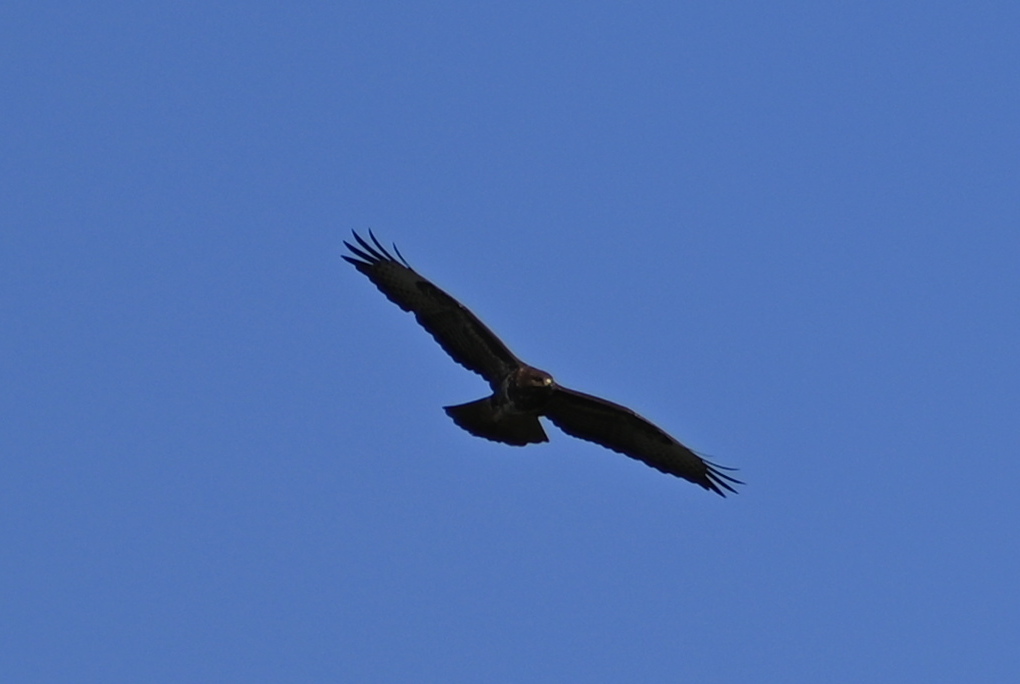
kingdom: Animalia
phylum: Chordata
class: Aves
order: Accipitriformes
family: Accipitridae
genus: Buteo
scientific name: Buteo buteo
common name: Common buzzard
